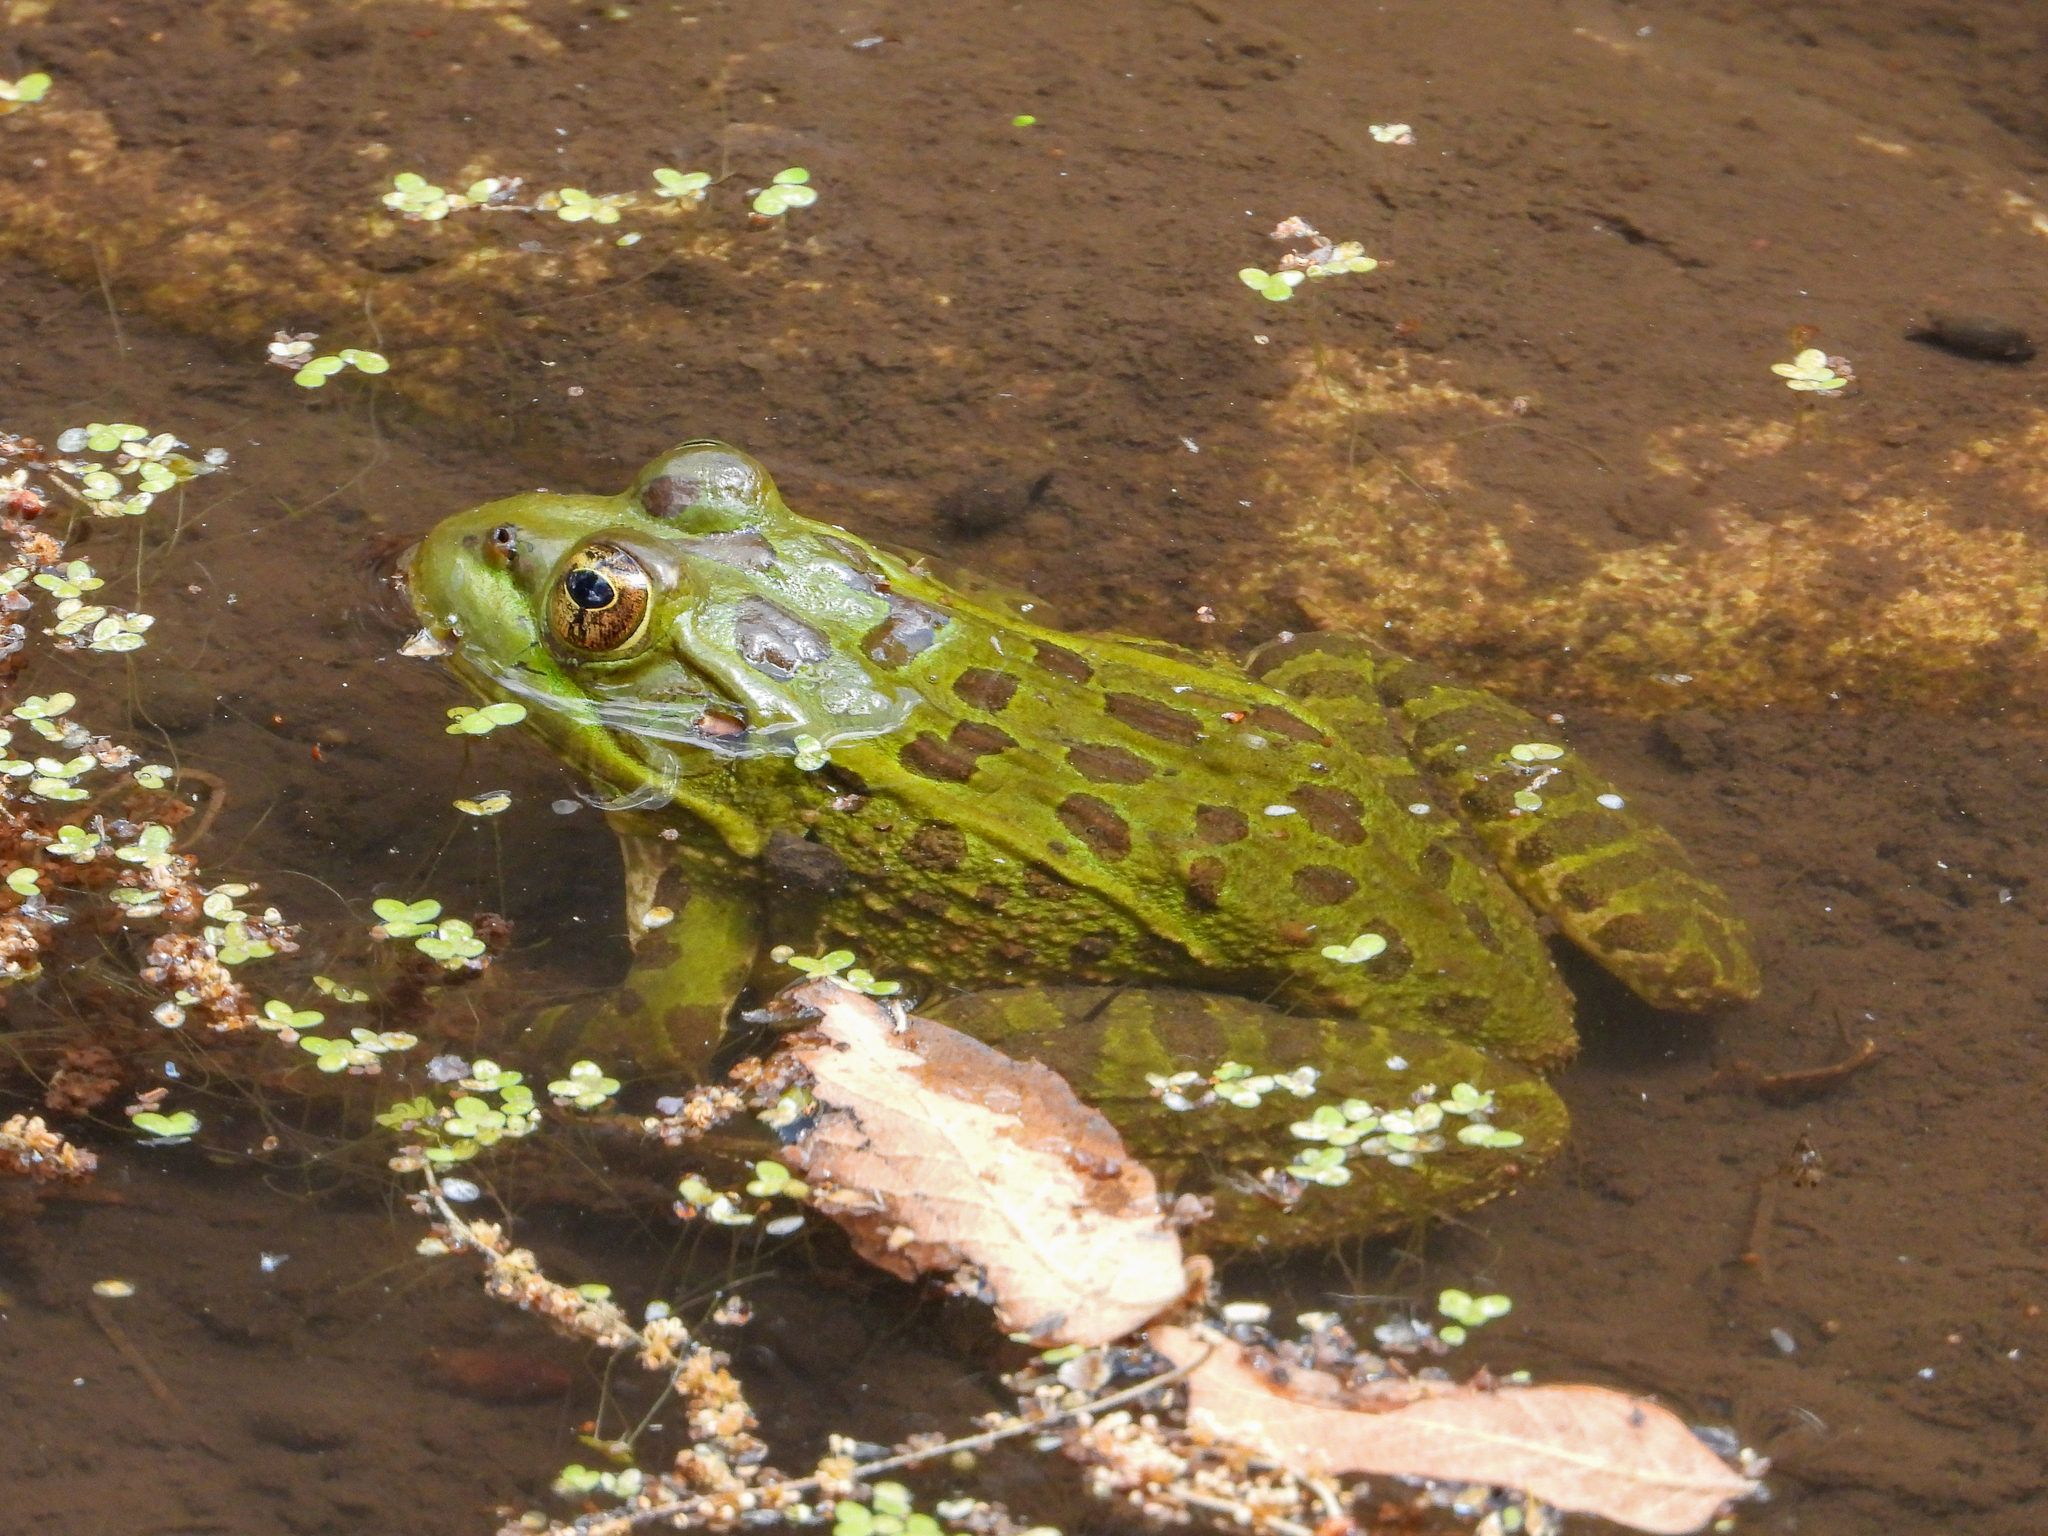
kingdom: Animalia
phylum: Chordata
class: Amphibia
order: Anura
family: Ranidae
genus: Lithobates
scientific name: Lithobates chiricahuensis
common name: Chiricahua leopard frog
